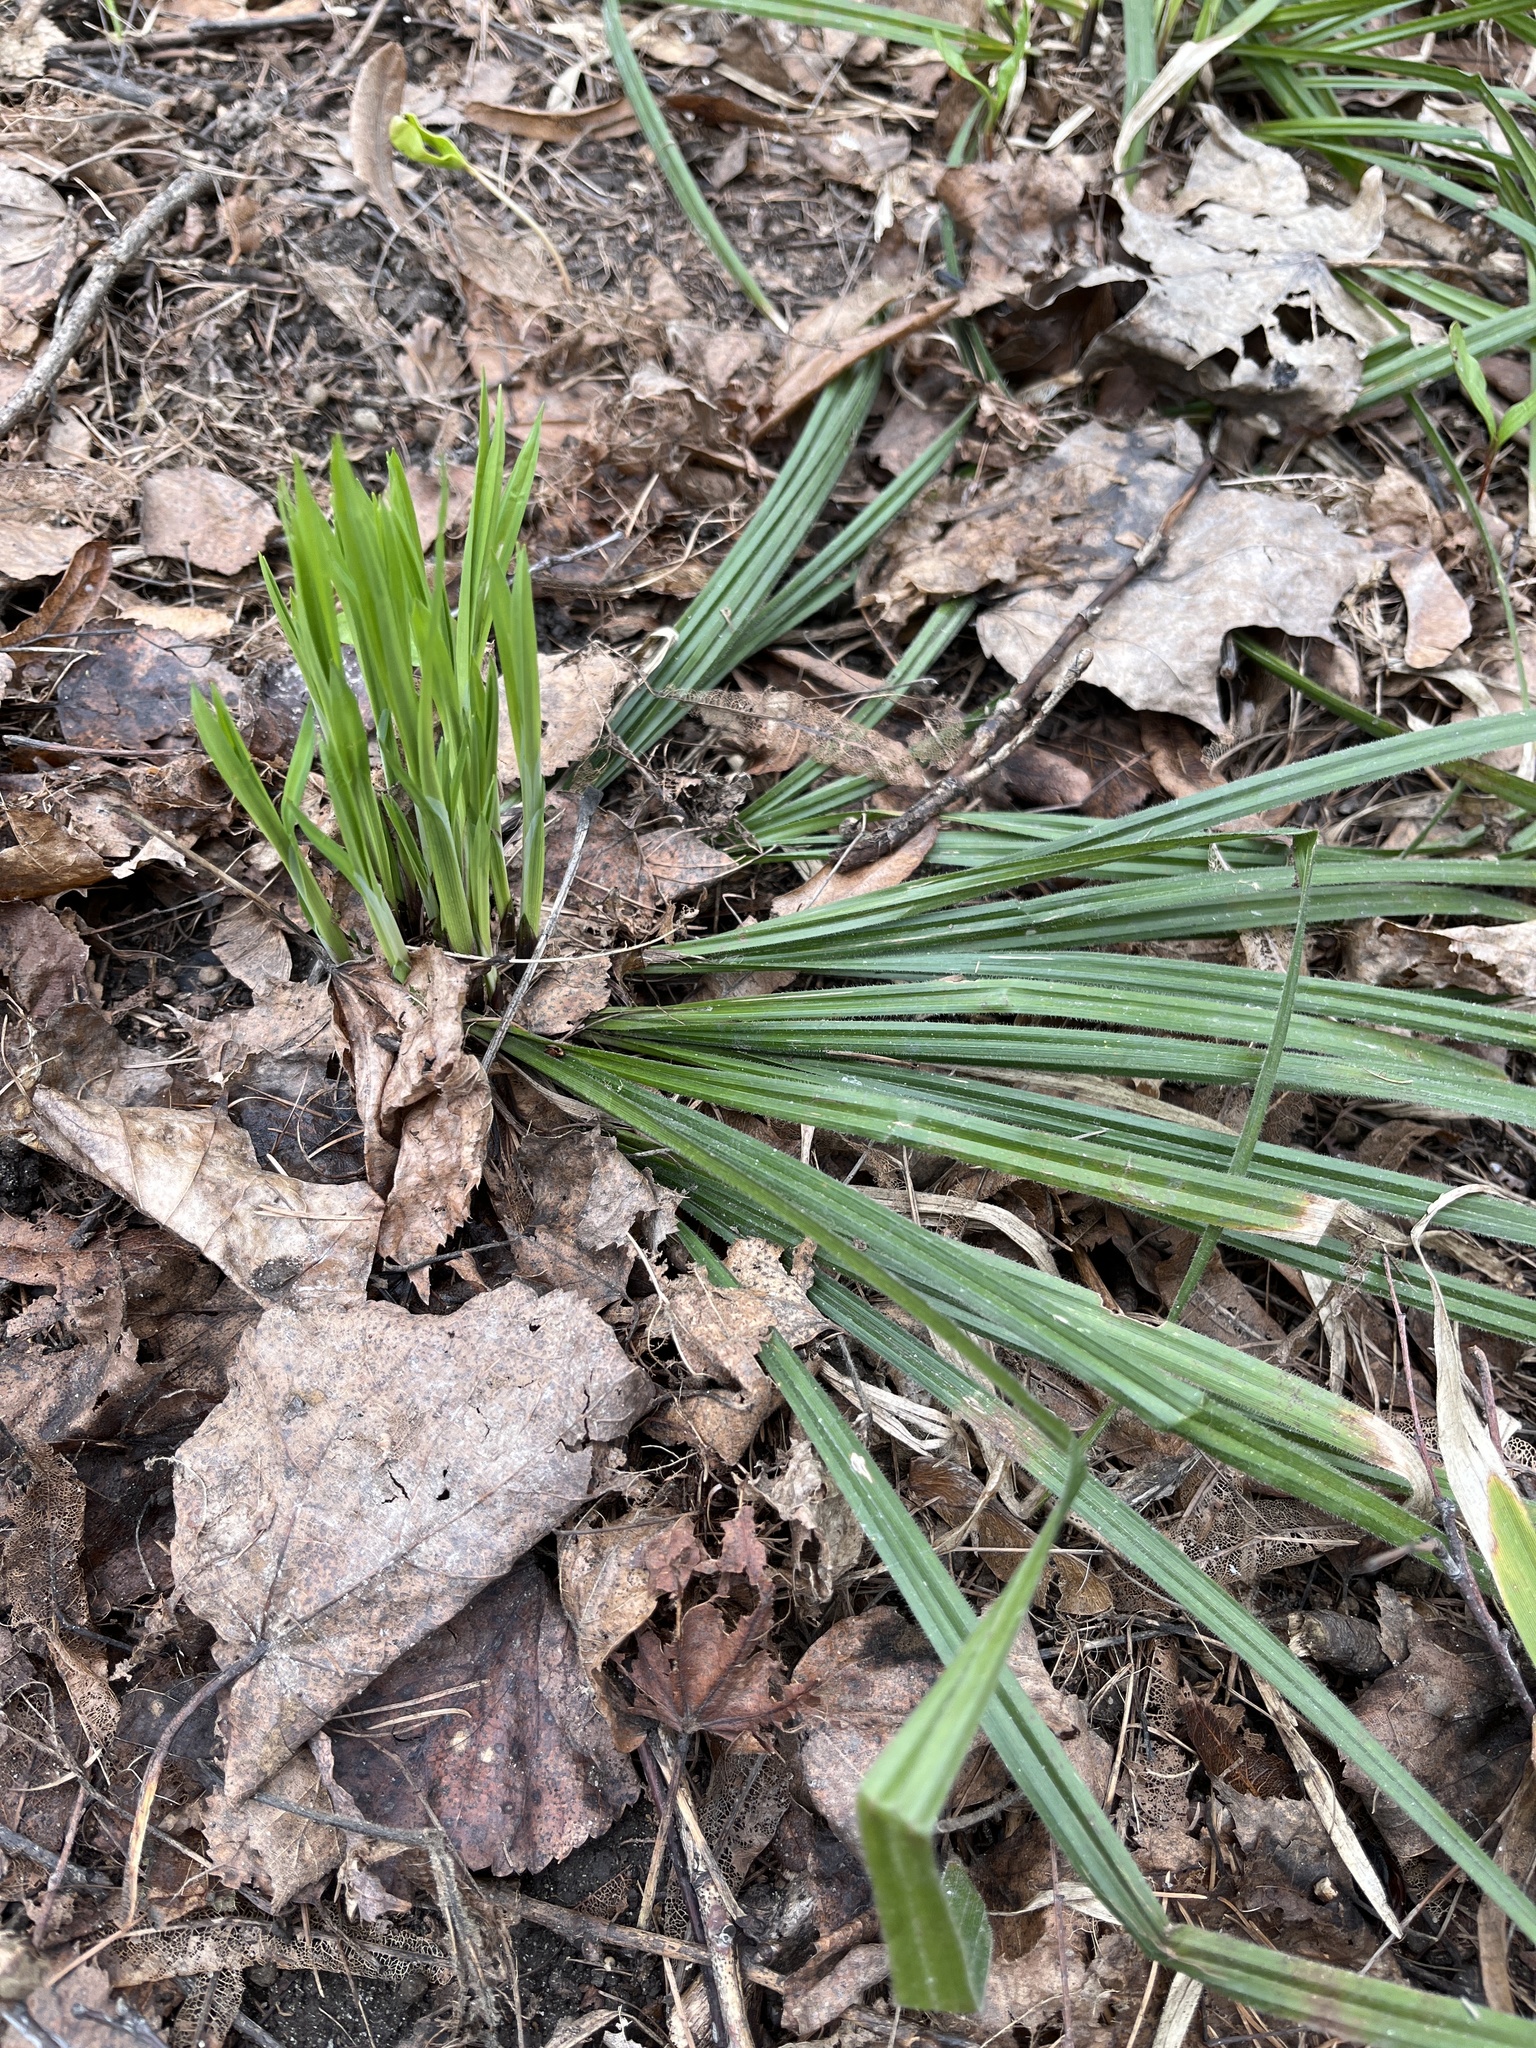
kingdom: Plantae
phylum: Tracheophyta
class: Liliopsida
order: Poales
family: Cyperaceae
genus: Carex
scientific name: Carex pilosa
